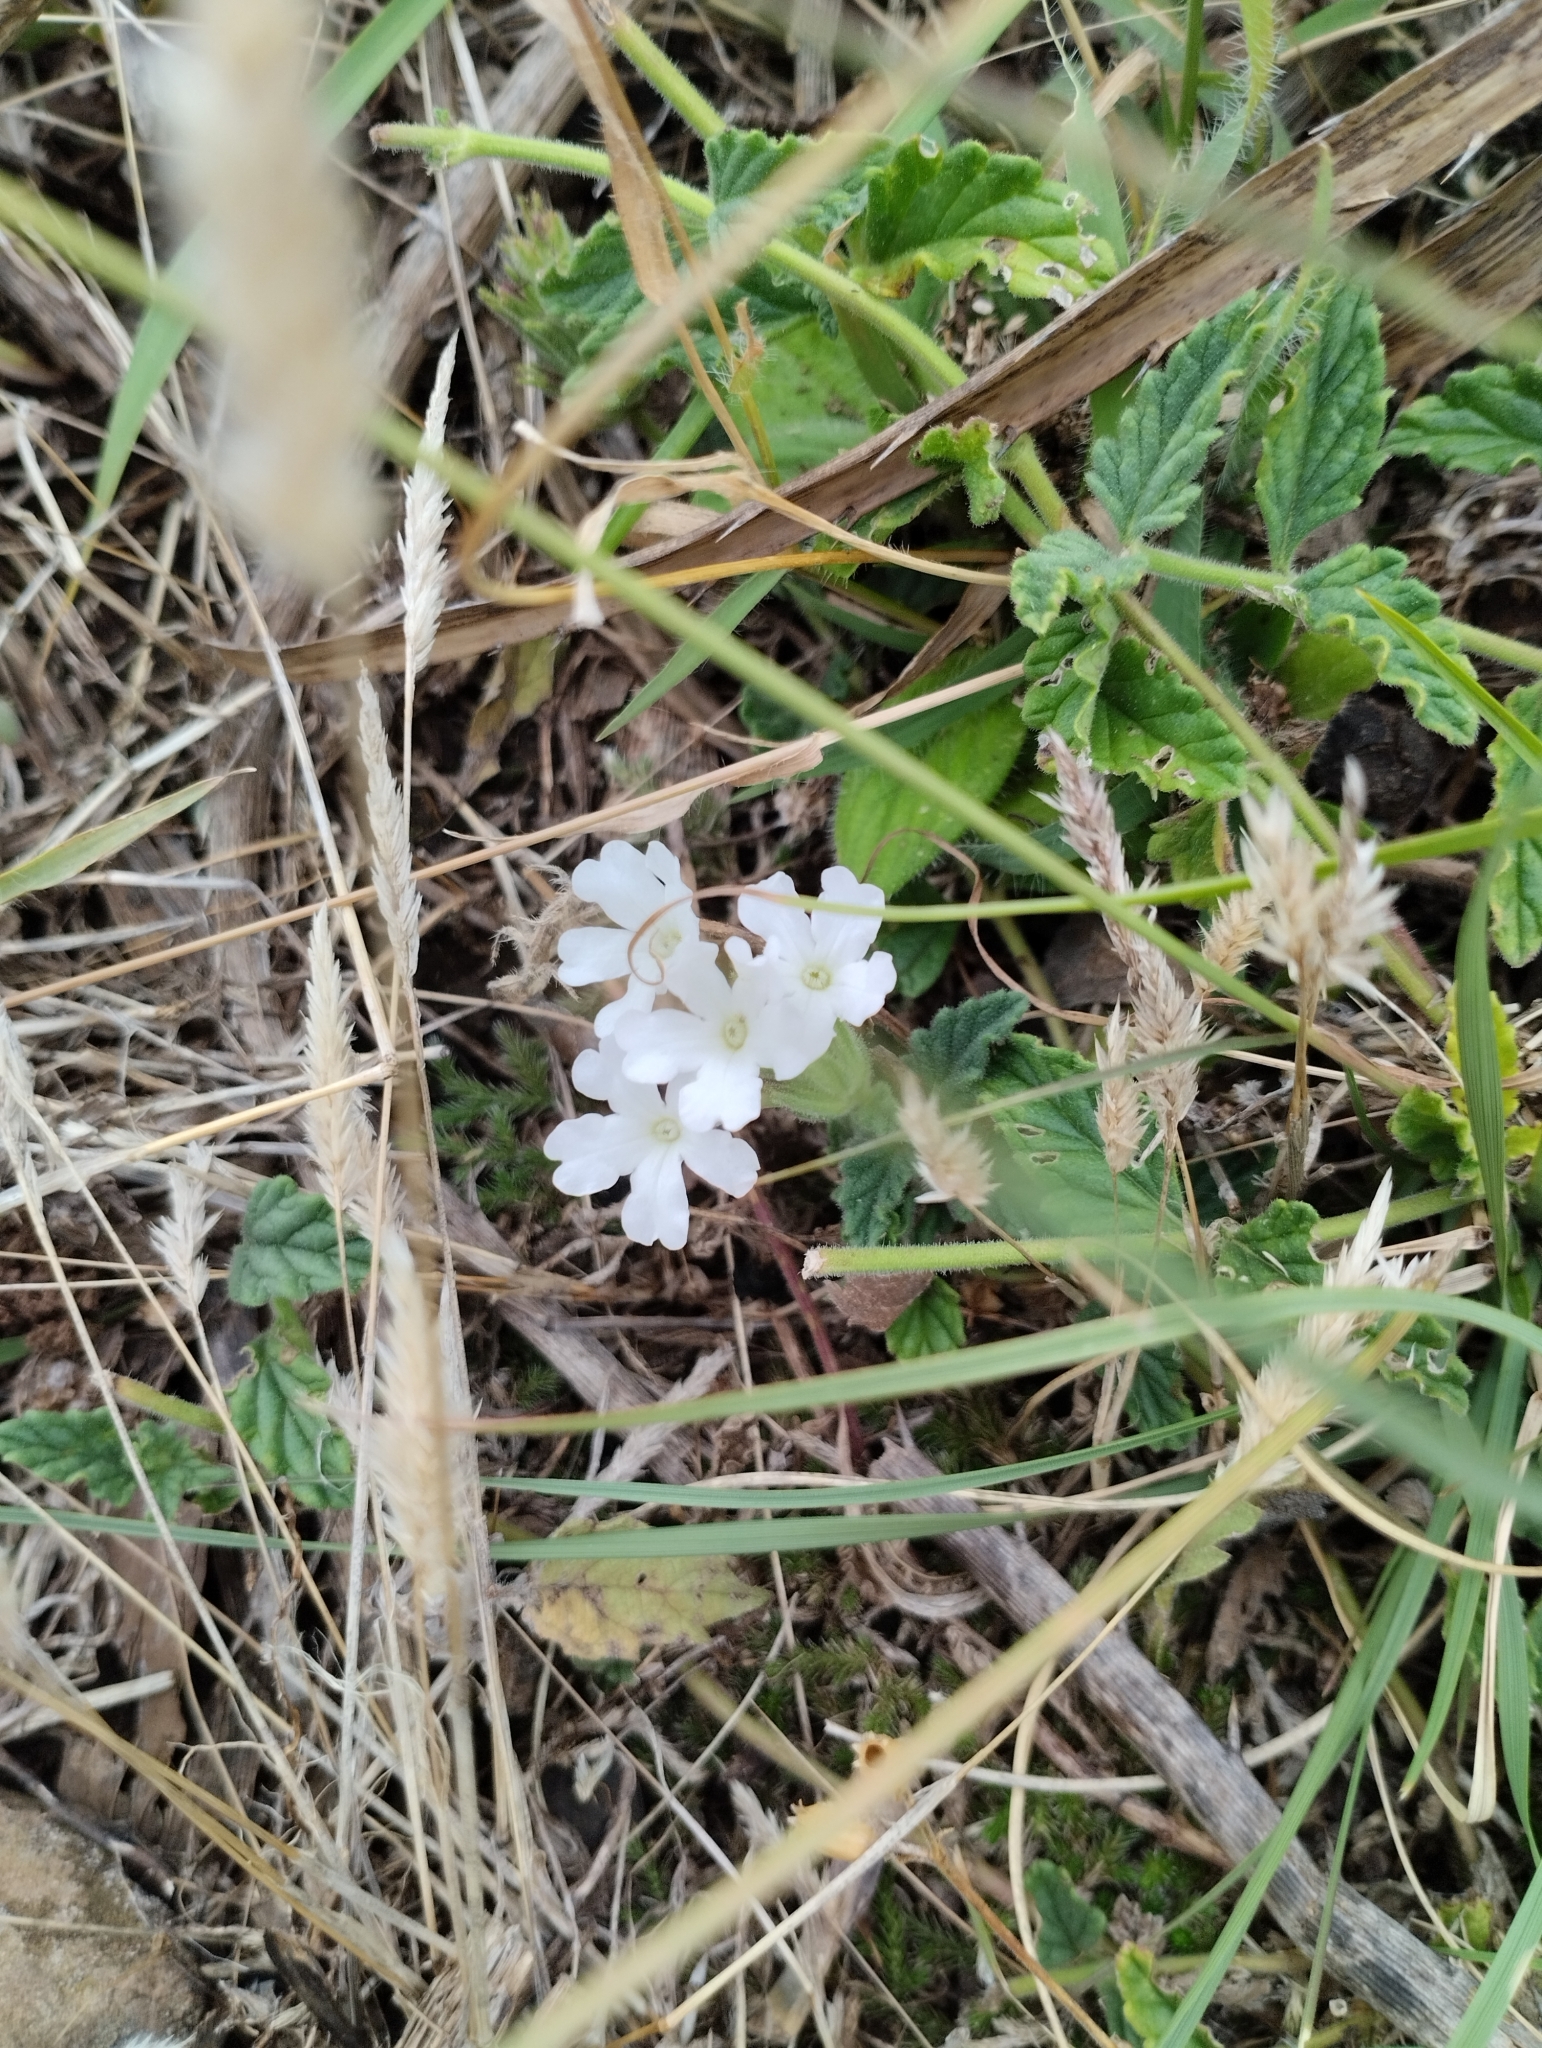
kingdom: Plantae
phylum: Tracheophyta
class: Magnoliopsida
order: Lamiales
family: Verbenaceae
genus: Verbena
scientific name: Verbena platensis
